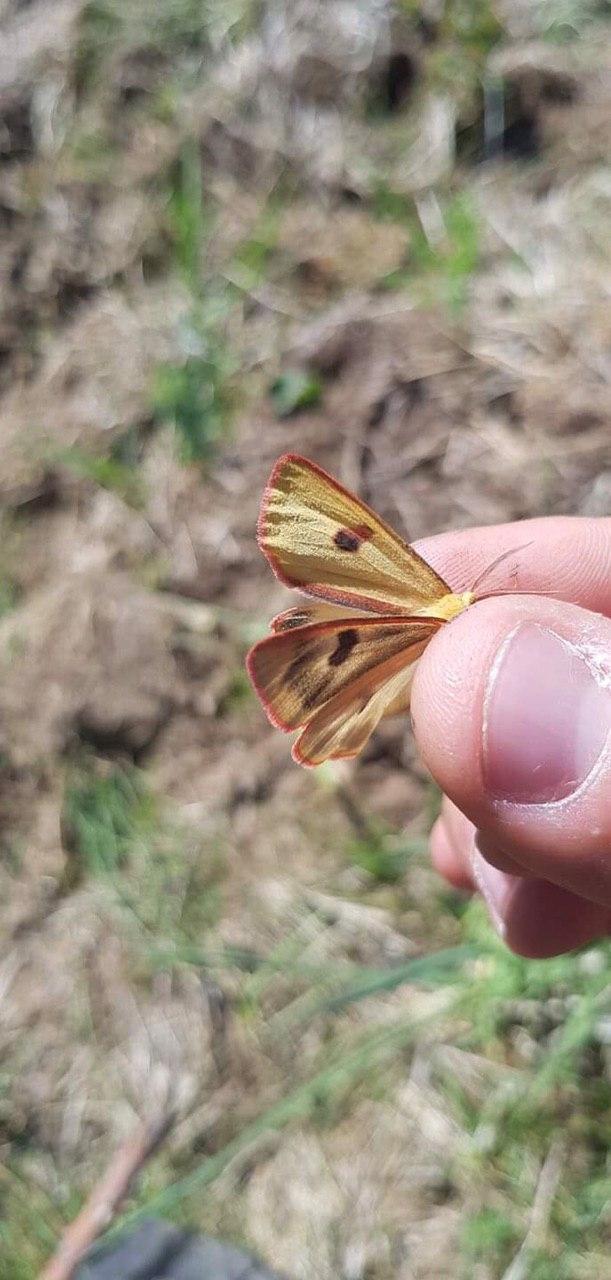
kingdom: Animalia
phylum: Arthropoda
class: Insecta
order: Lepidoptera
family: Erebidae
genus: Diacrisia
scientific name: Diacrisia sannio
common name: Clouded buff
